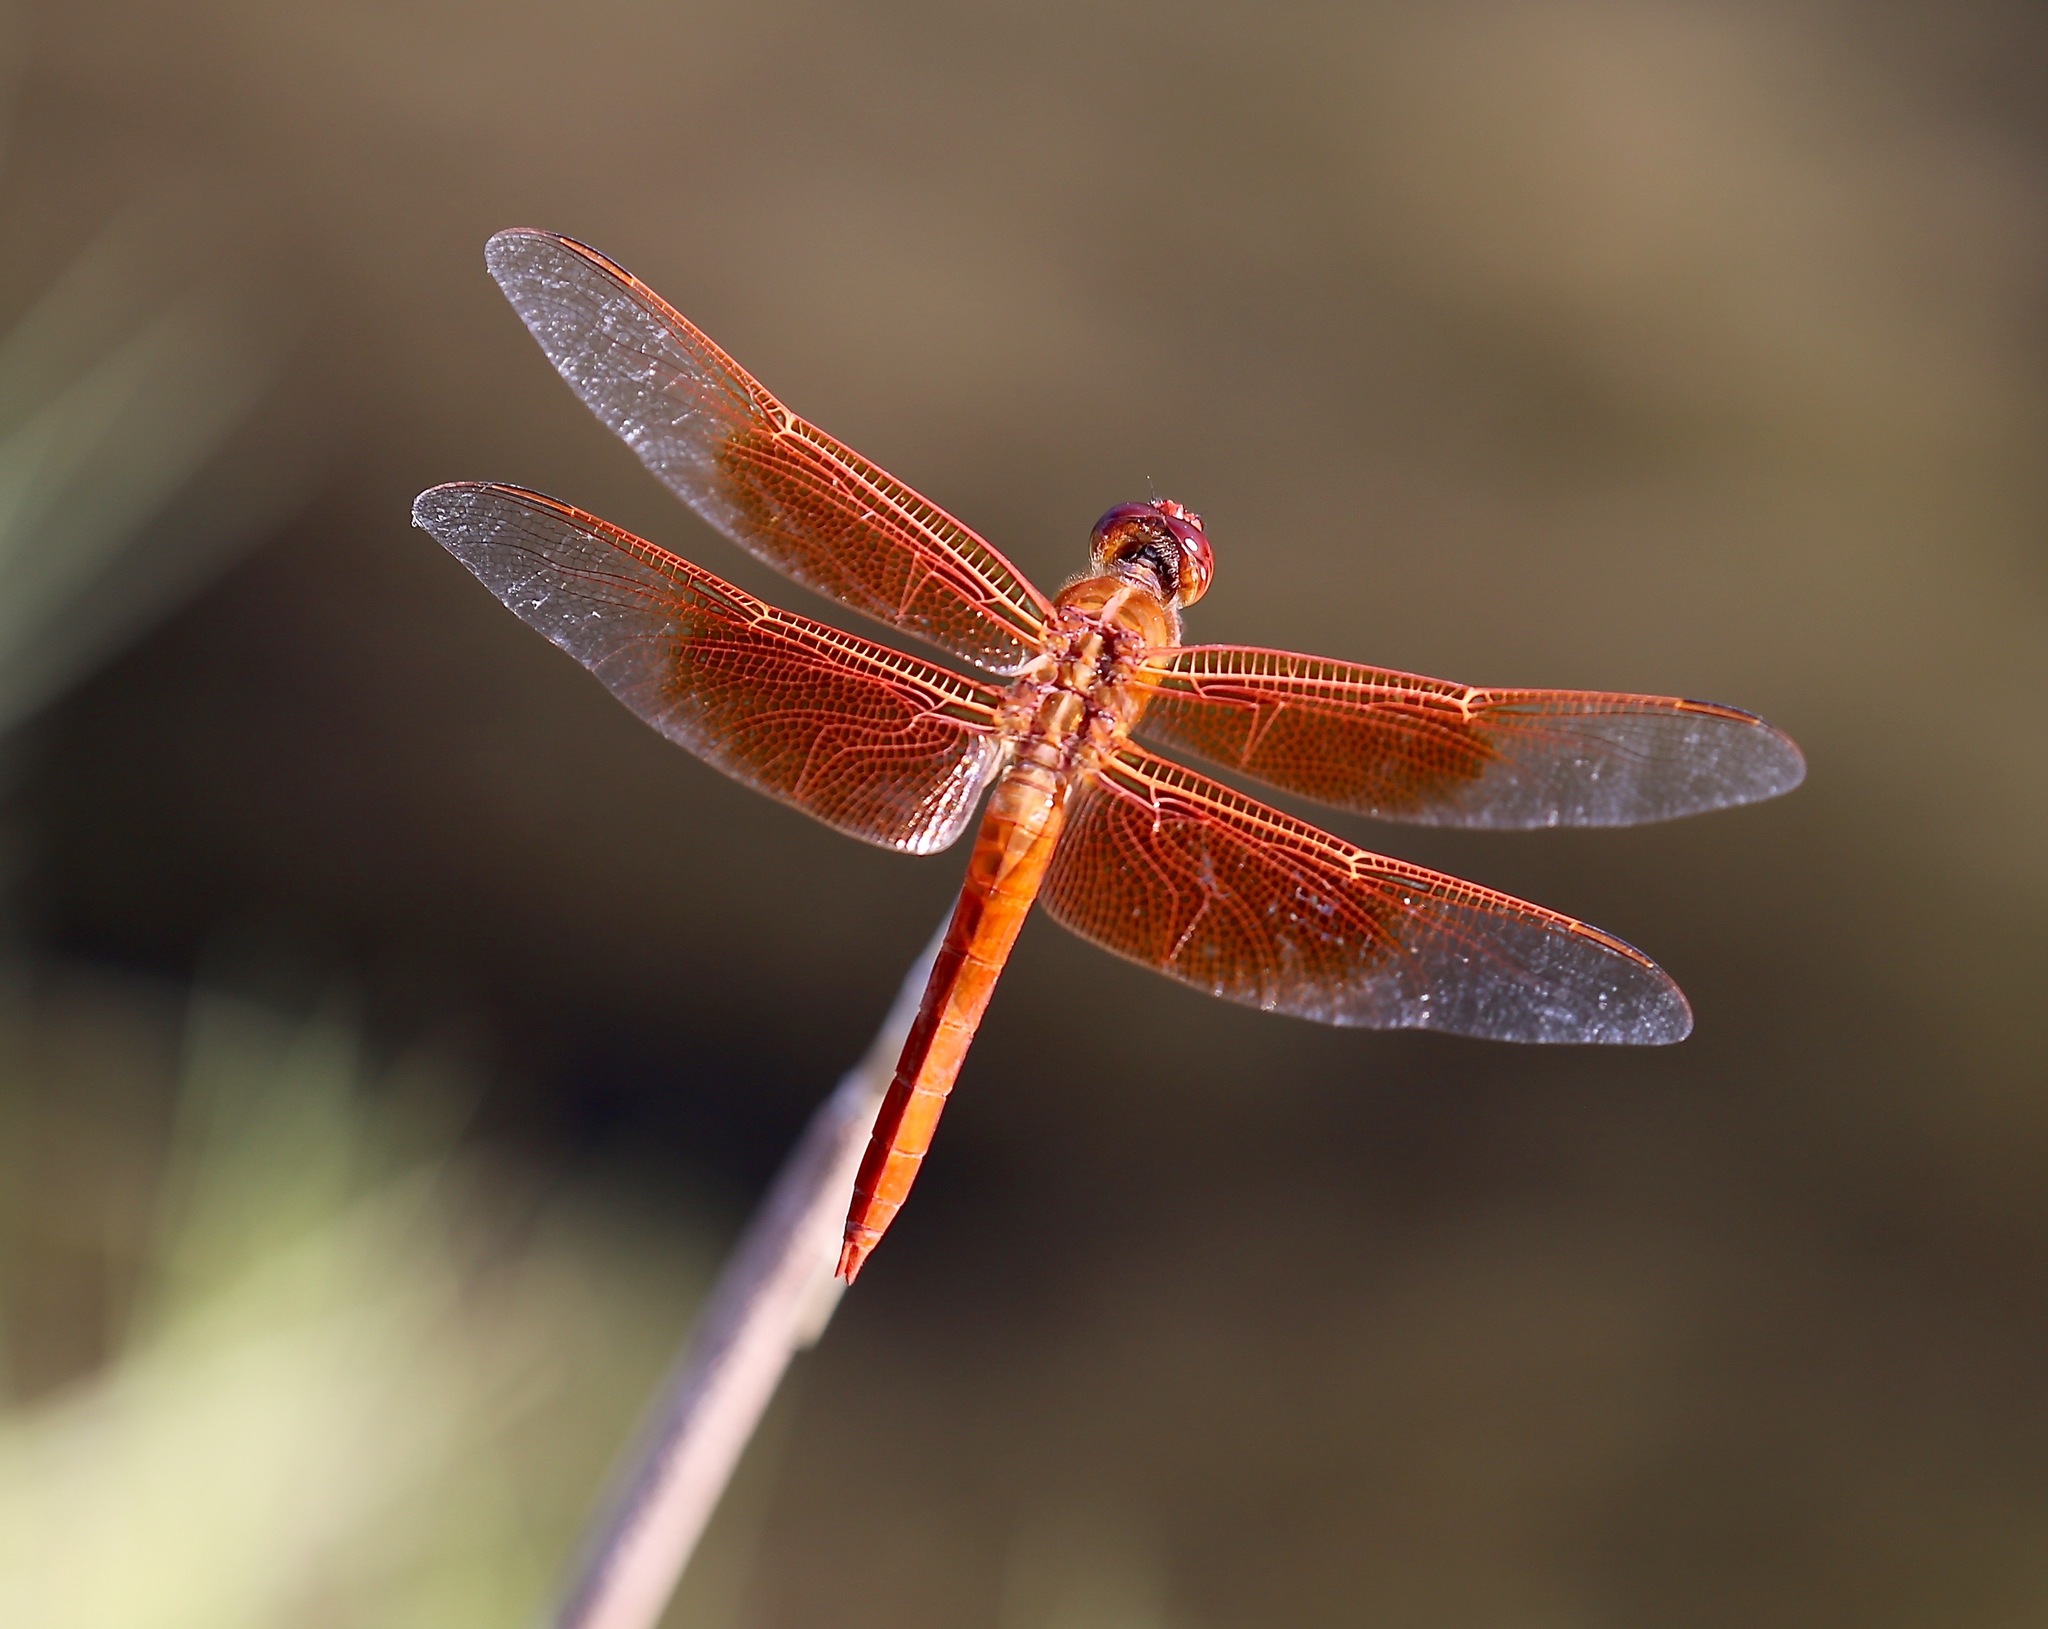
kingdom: Animalia
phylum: Arthropoda
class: Insecta
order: Odonata
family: Libellulidae
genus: Libellula
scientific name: Libellula saturata
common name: Flame skimmer
